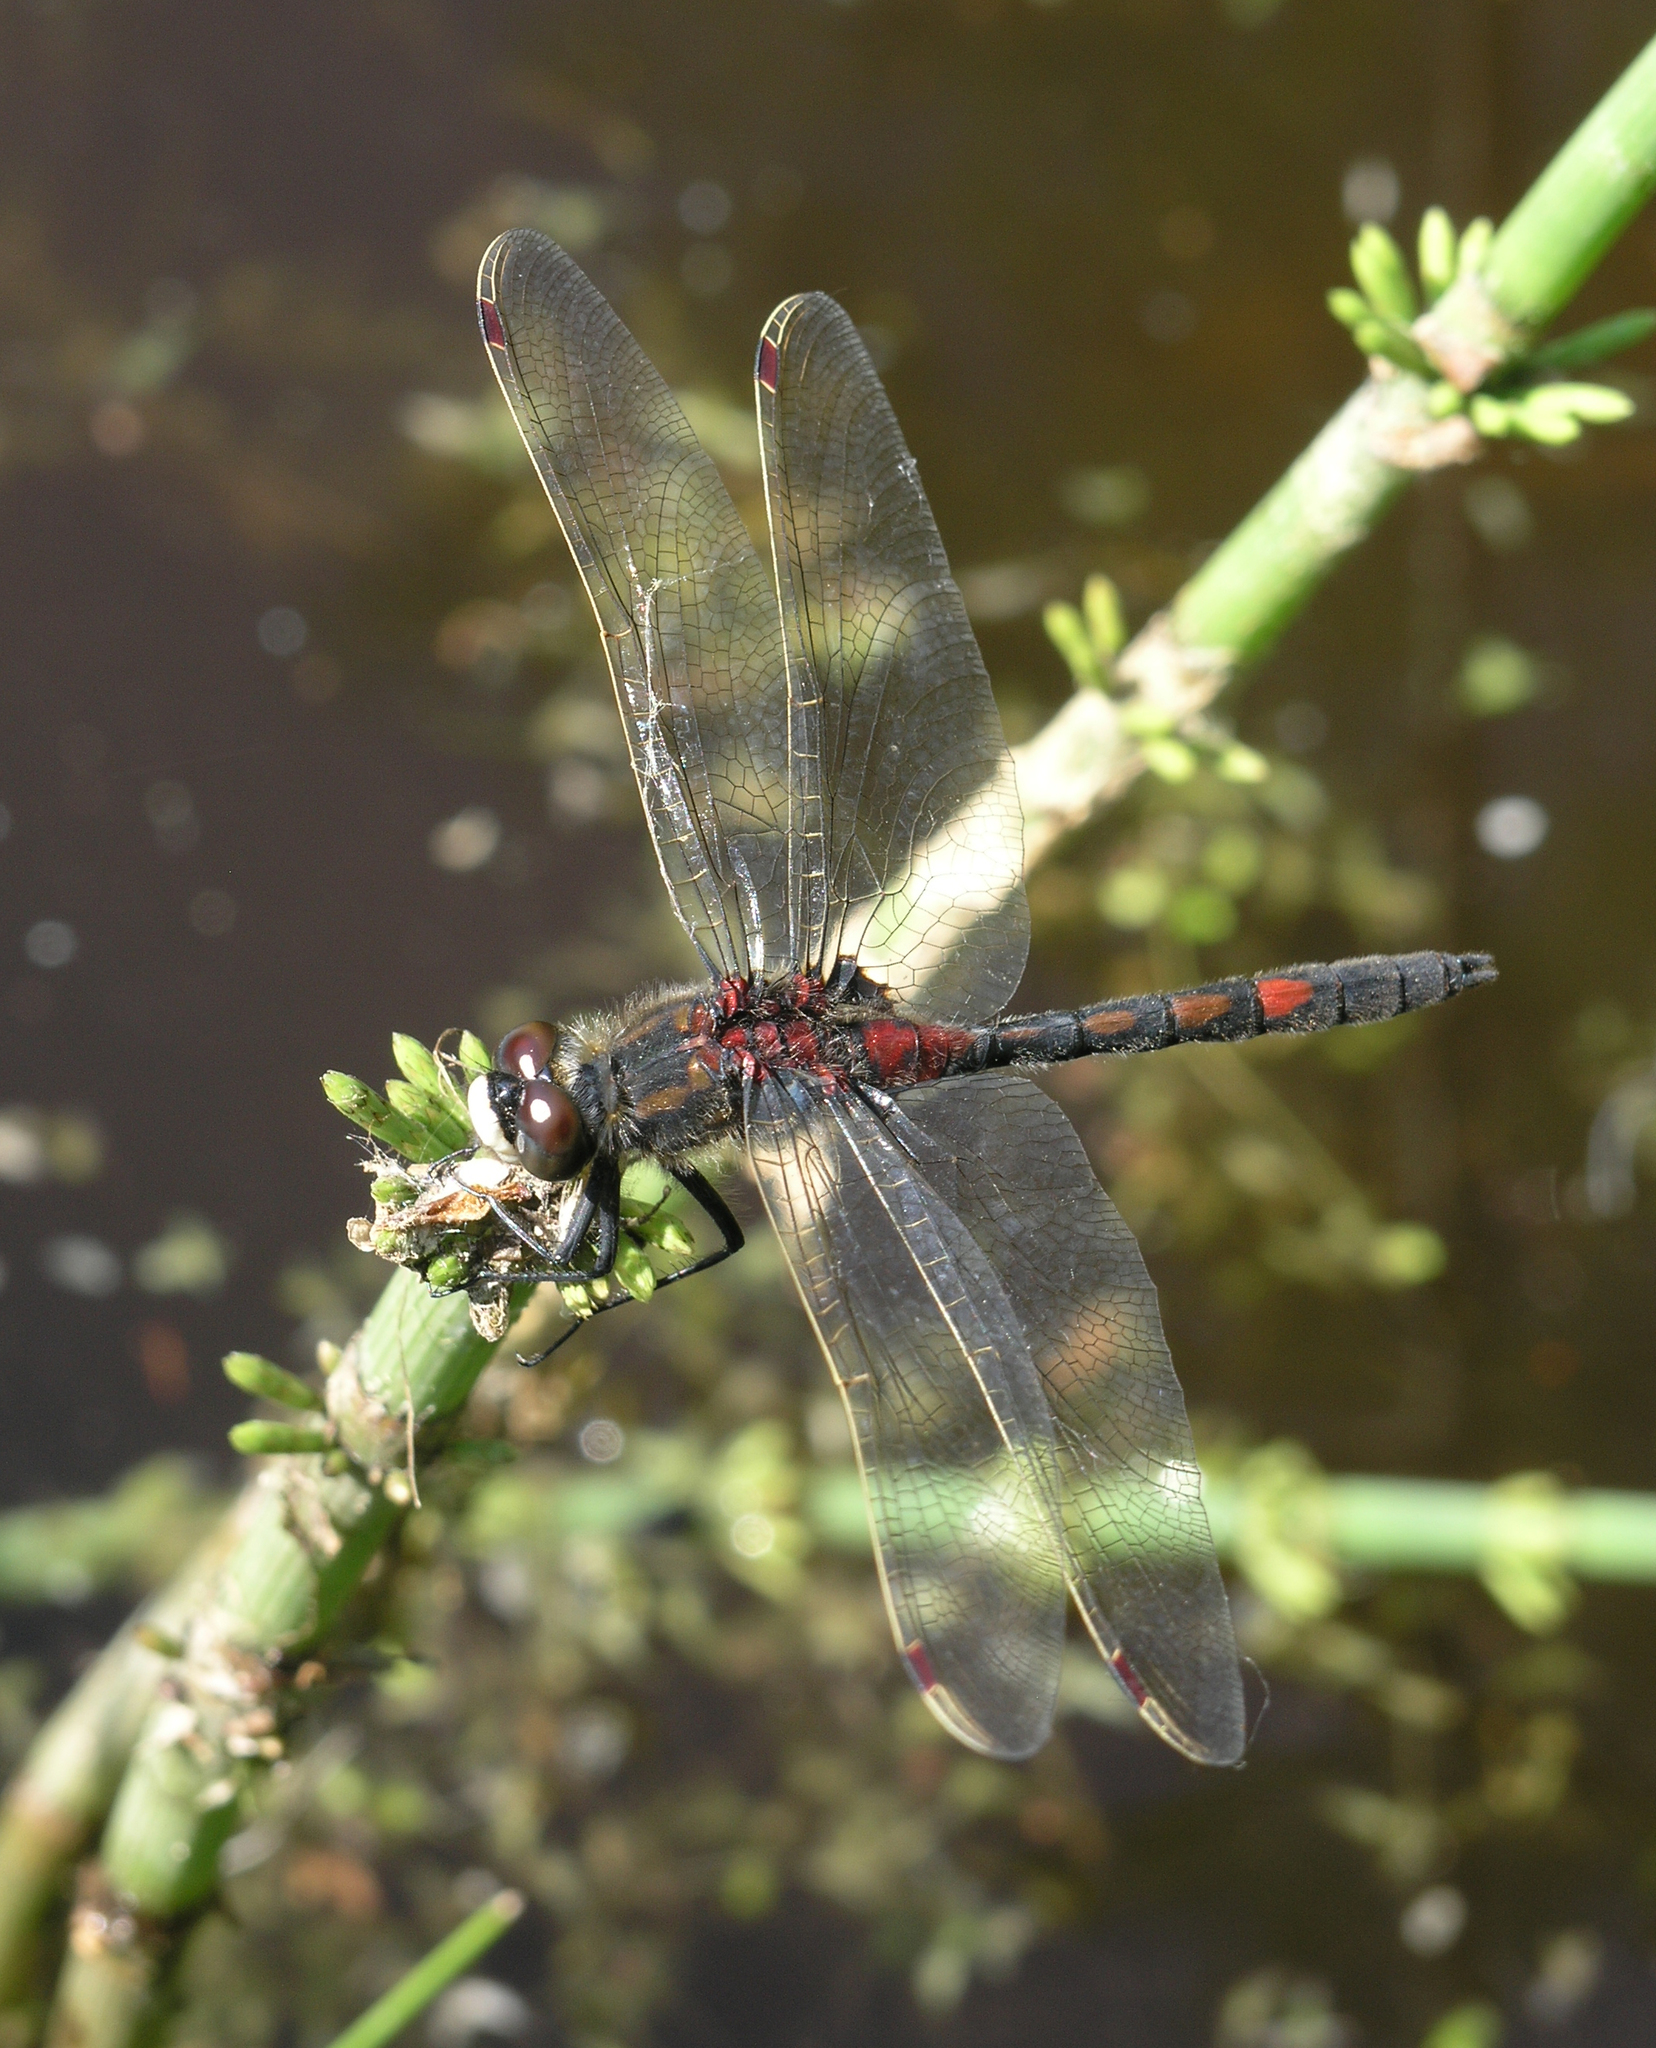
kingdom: Animalia
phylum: Arthropoda
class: Insecta
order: Odonata
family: Libellulidae
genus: Leucorrhinia
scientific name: Leucorrhinia rubicunda
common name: Ruby whiteface
